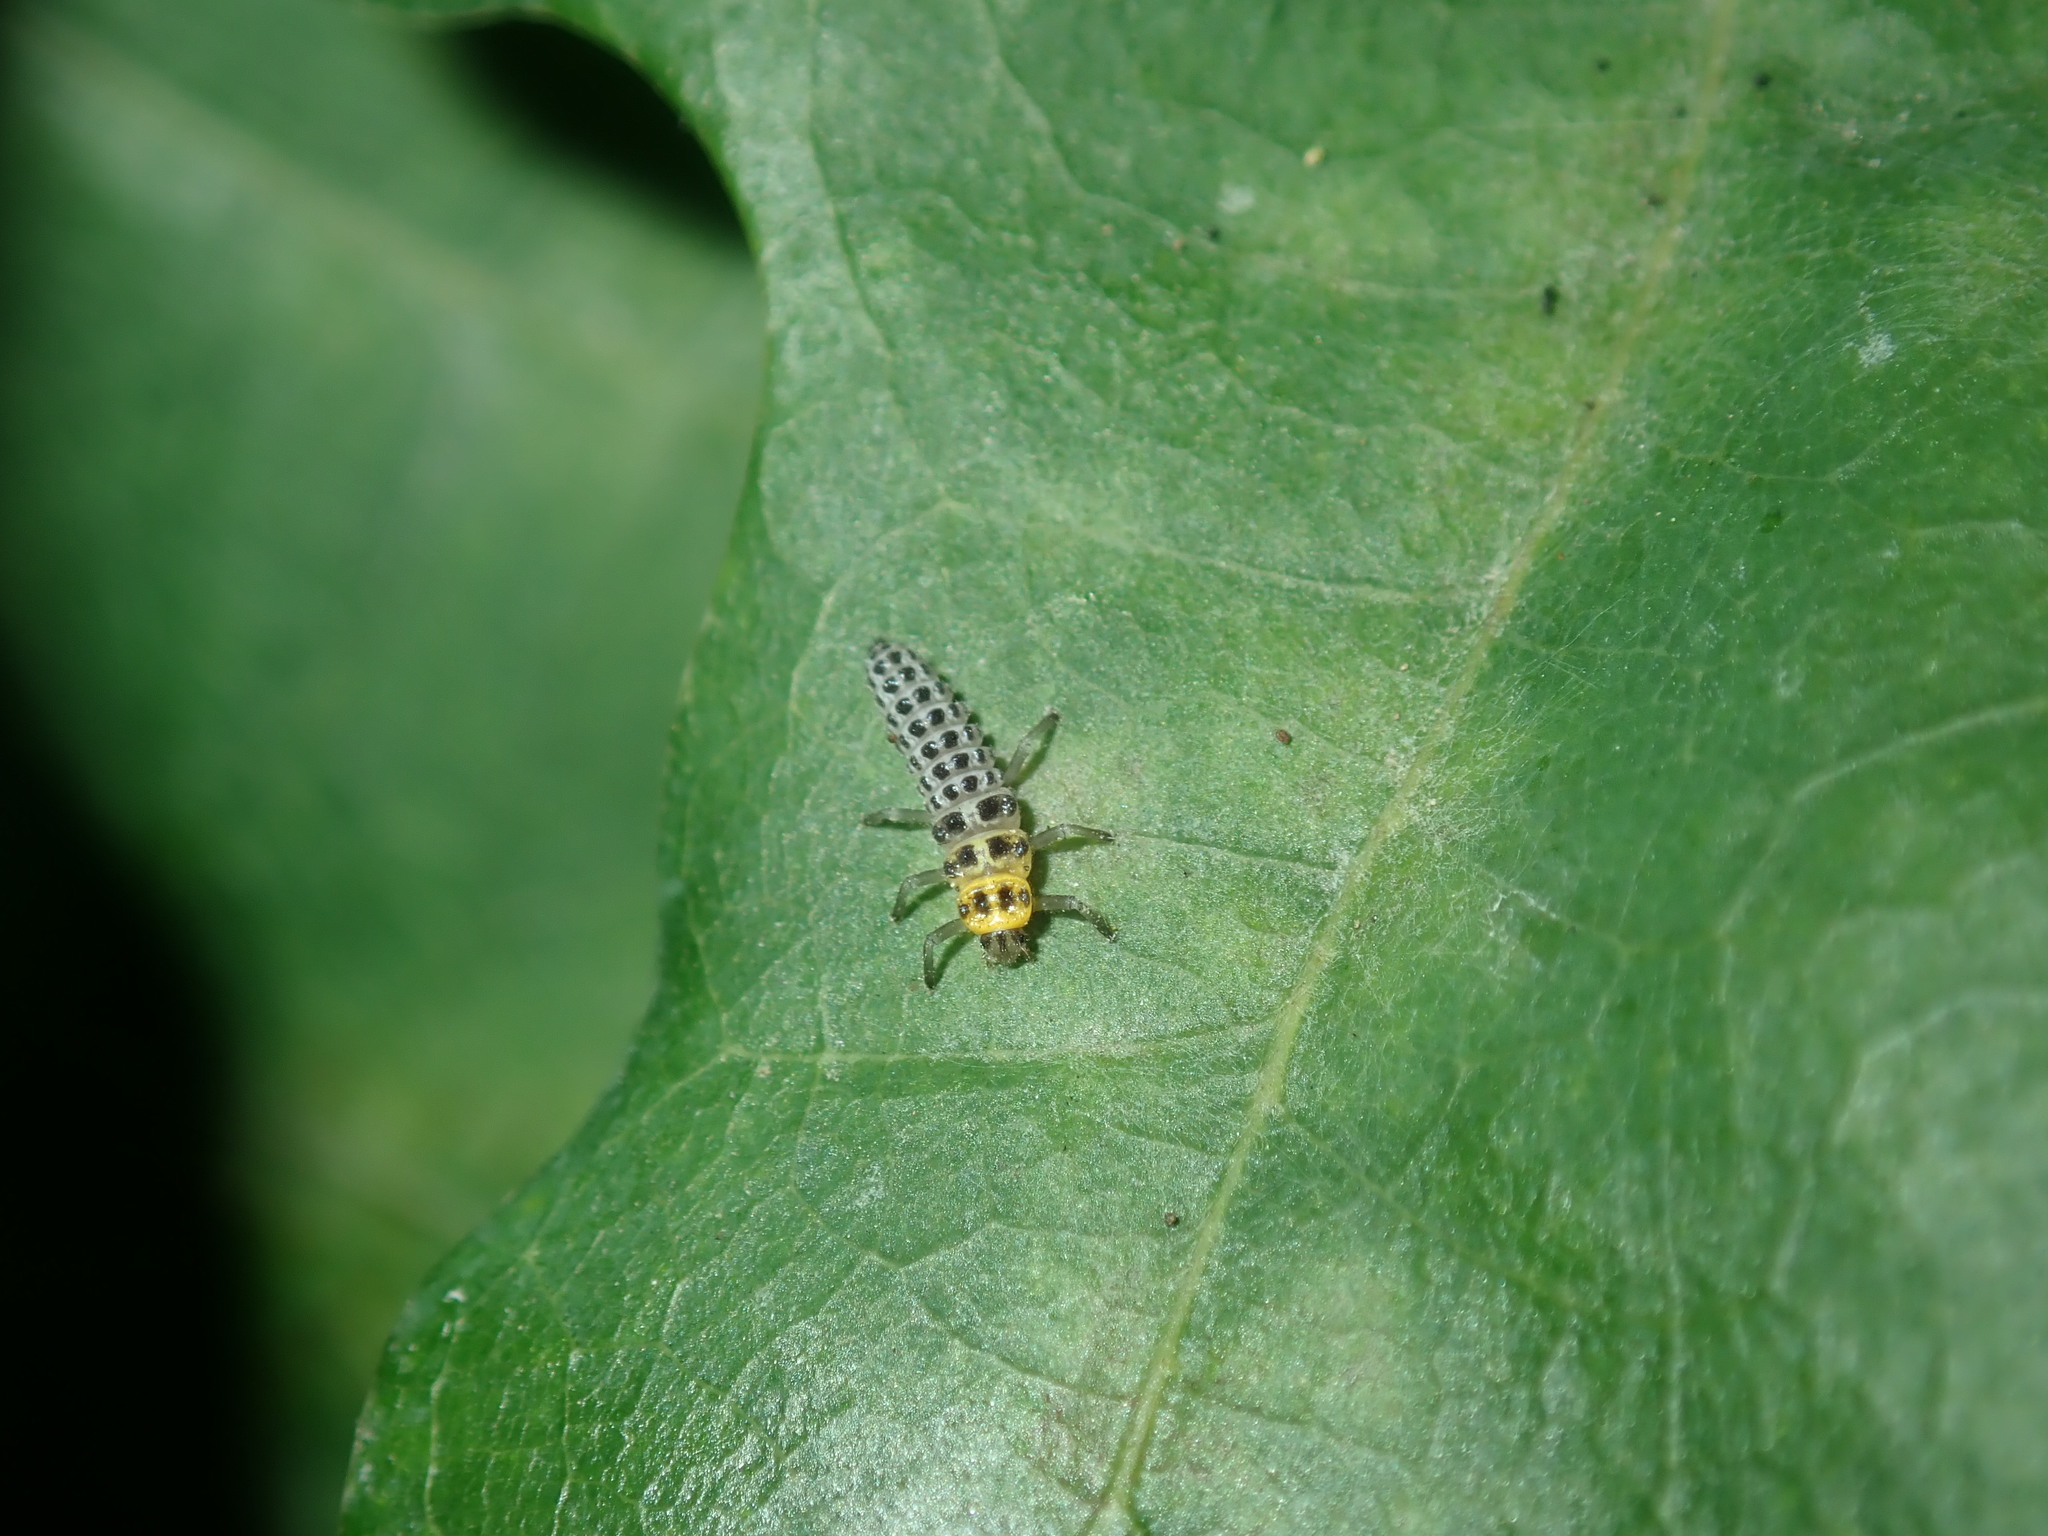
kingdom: Animalia
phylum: Arthropoda
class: Insecta
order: Coleoptera
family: Coccinellidae
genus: Illeis
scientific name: Illeis galbula
